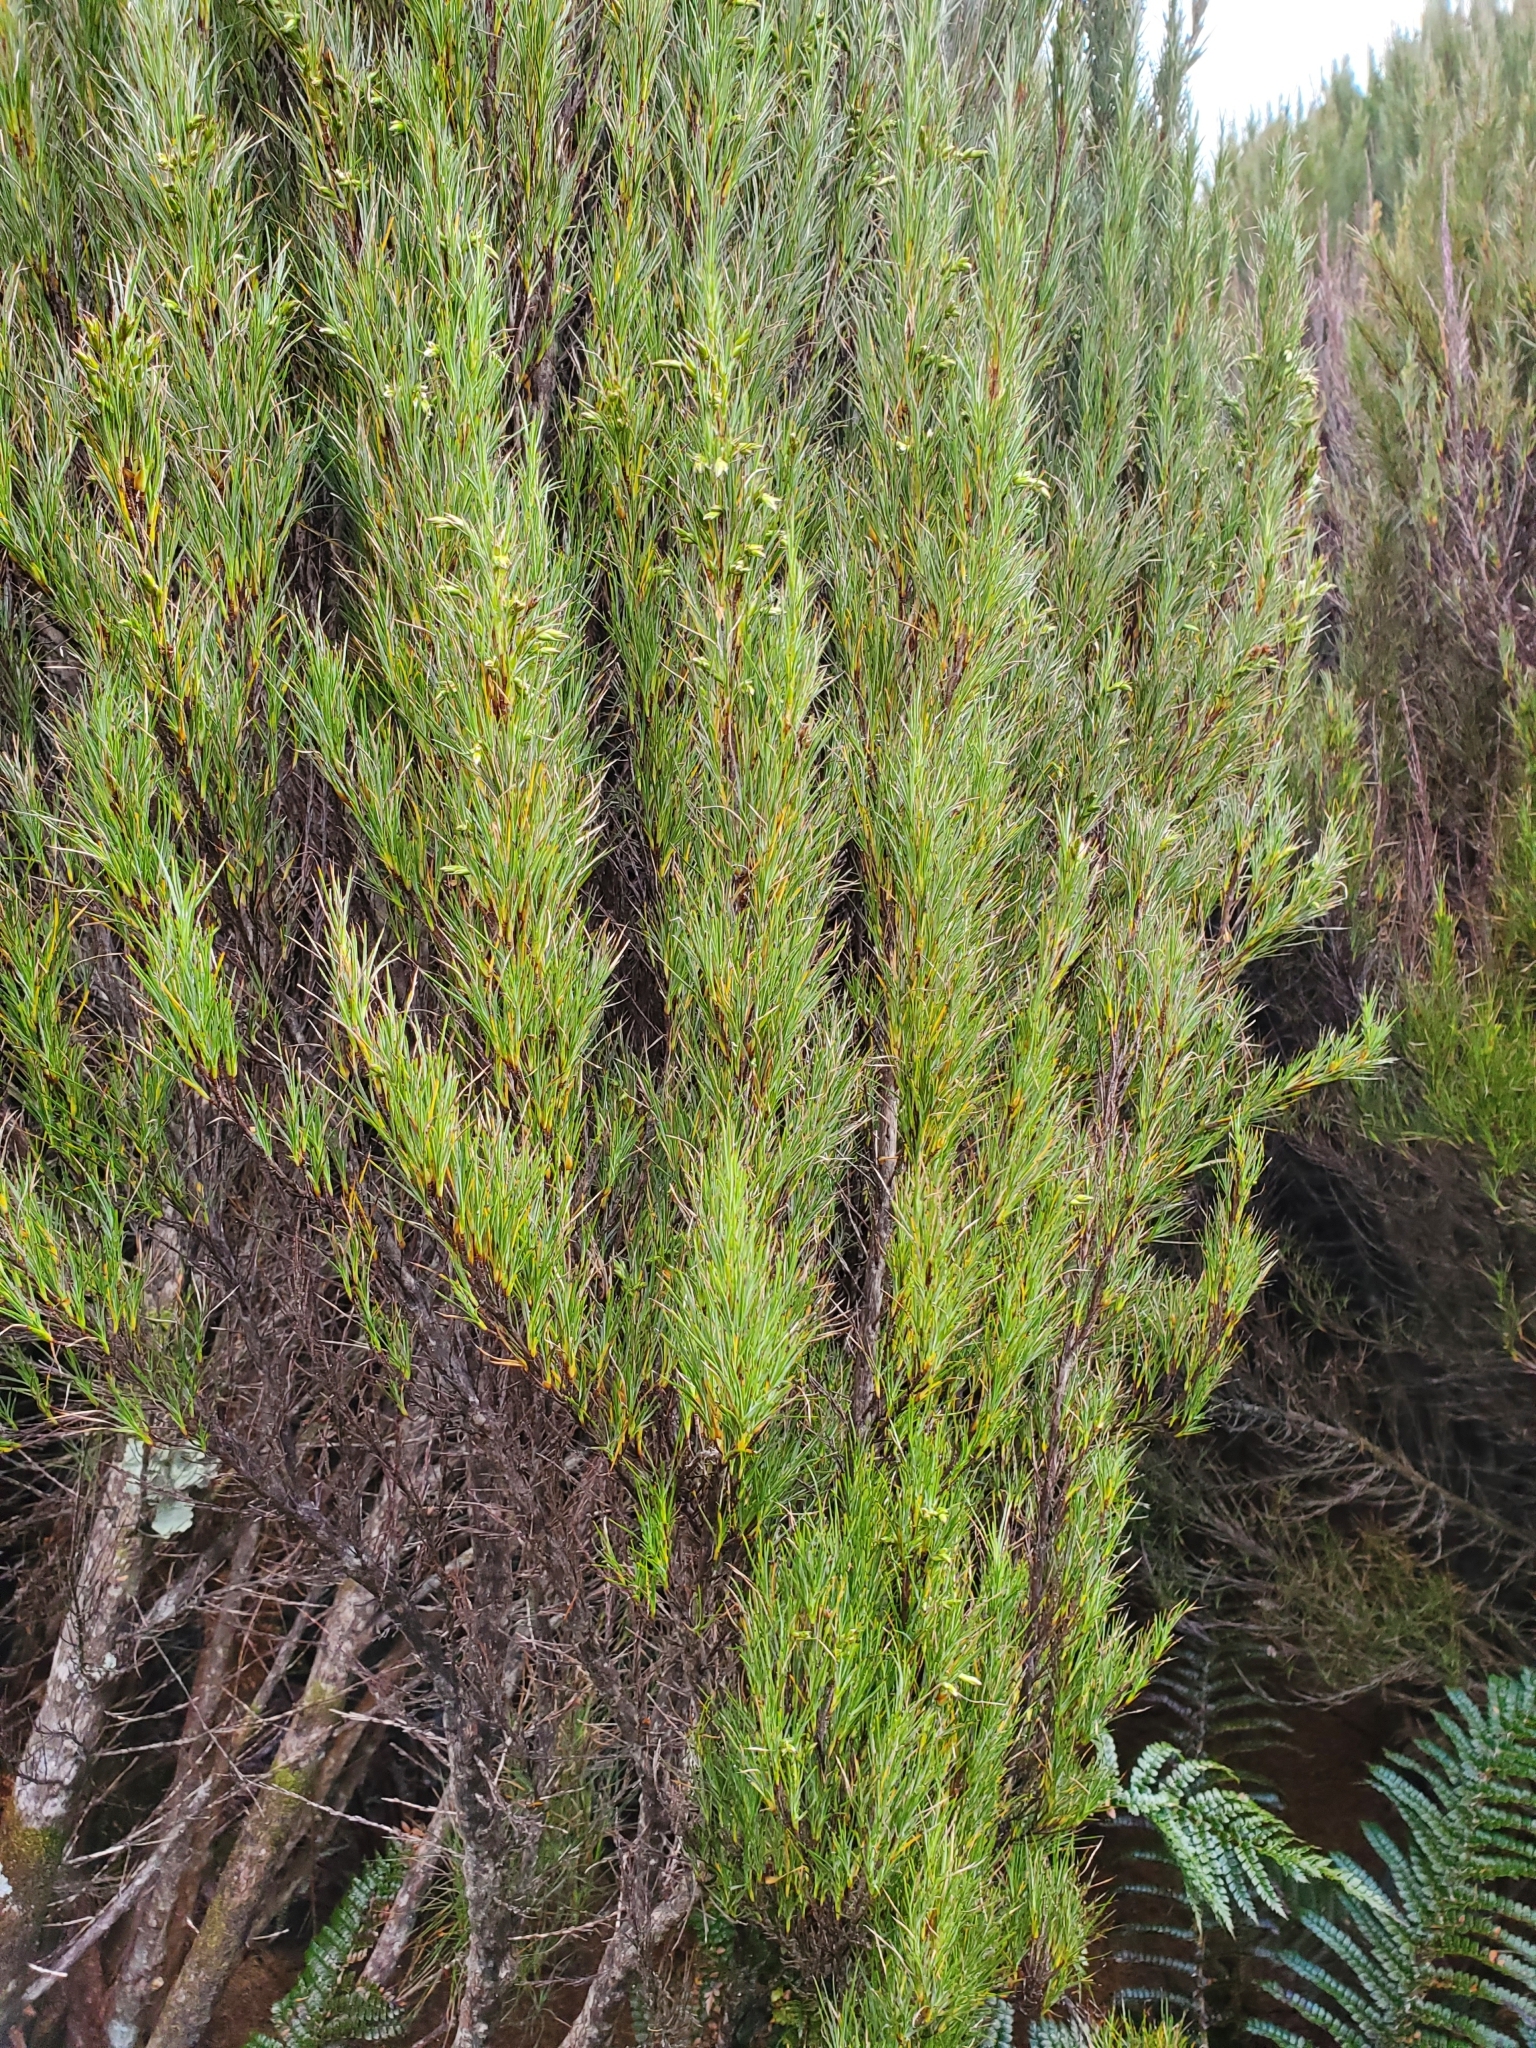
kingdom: Plantae
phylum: Tracheophyta
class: Magnoliopsida
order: Ericales
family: Ericaceae
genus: Dracophyllum
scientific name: Dracophyllum scoparium
